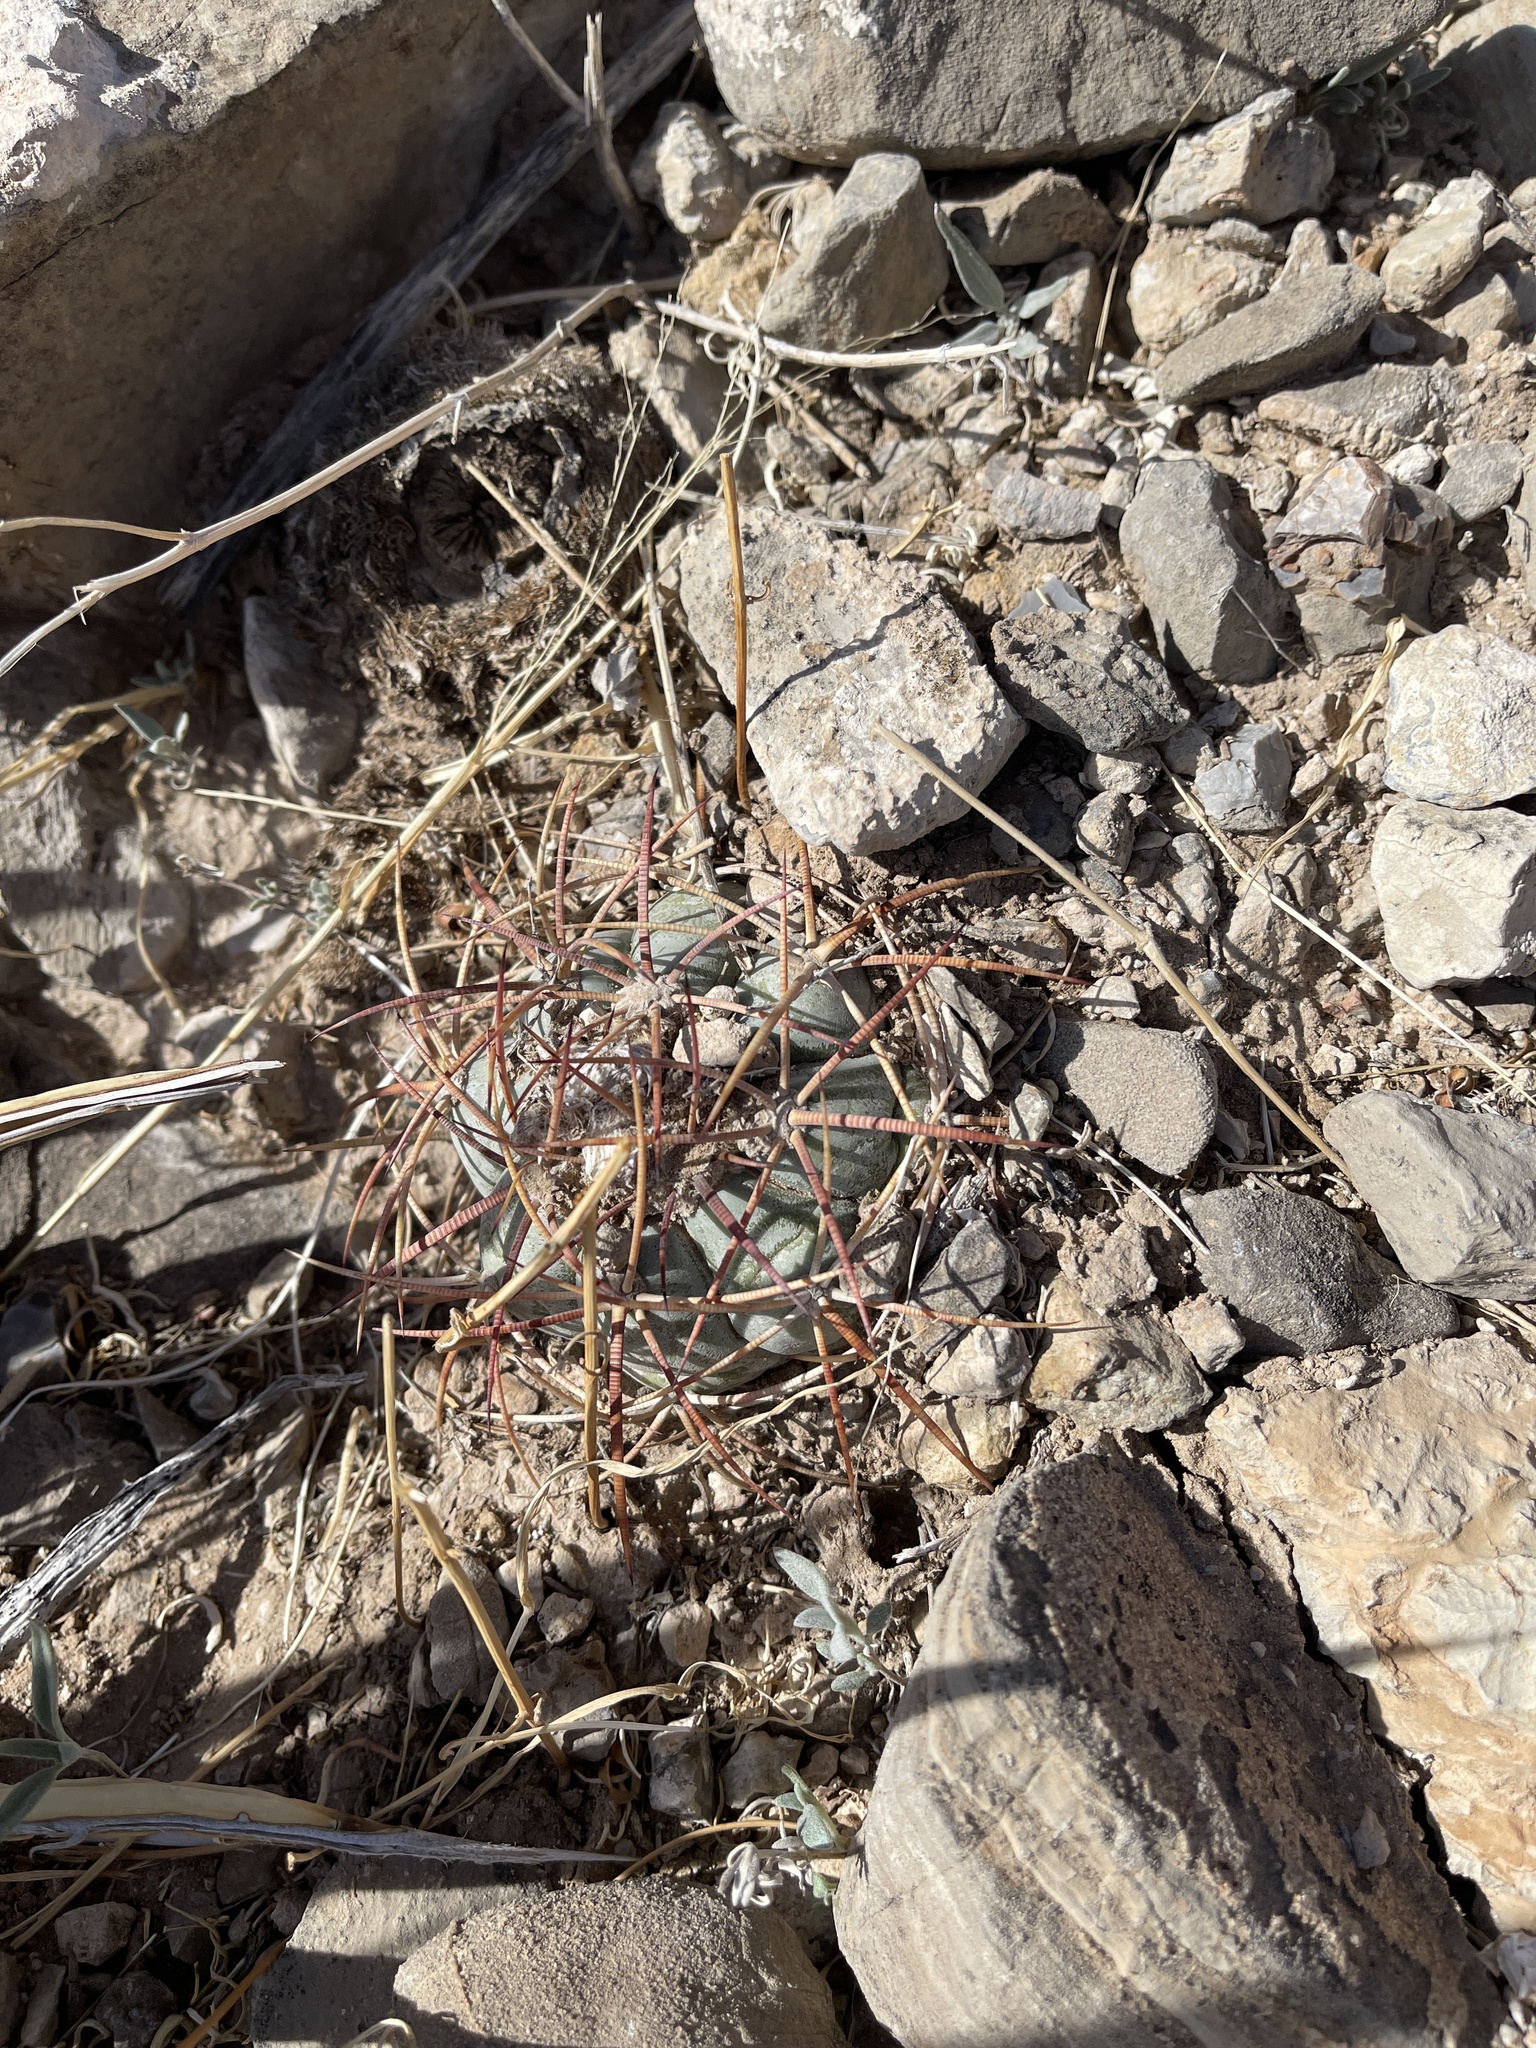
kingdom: Plantae
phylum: Tracheophyta
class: Magnoliopsida
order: Caryophyllales
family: Cactaceae
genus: Echinocactus
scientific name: Echinocactus horizonthalonius
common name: Devilshead
